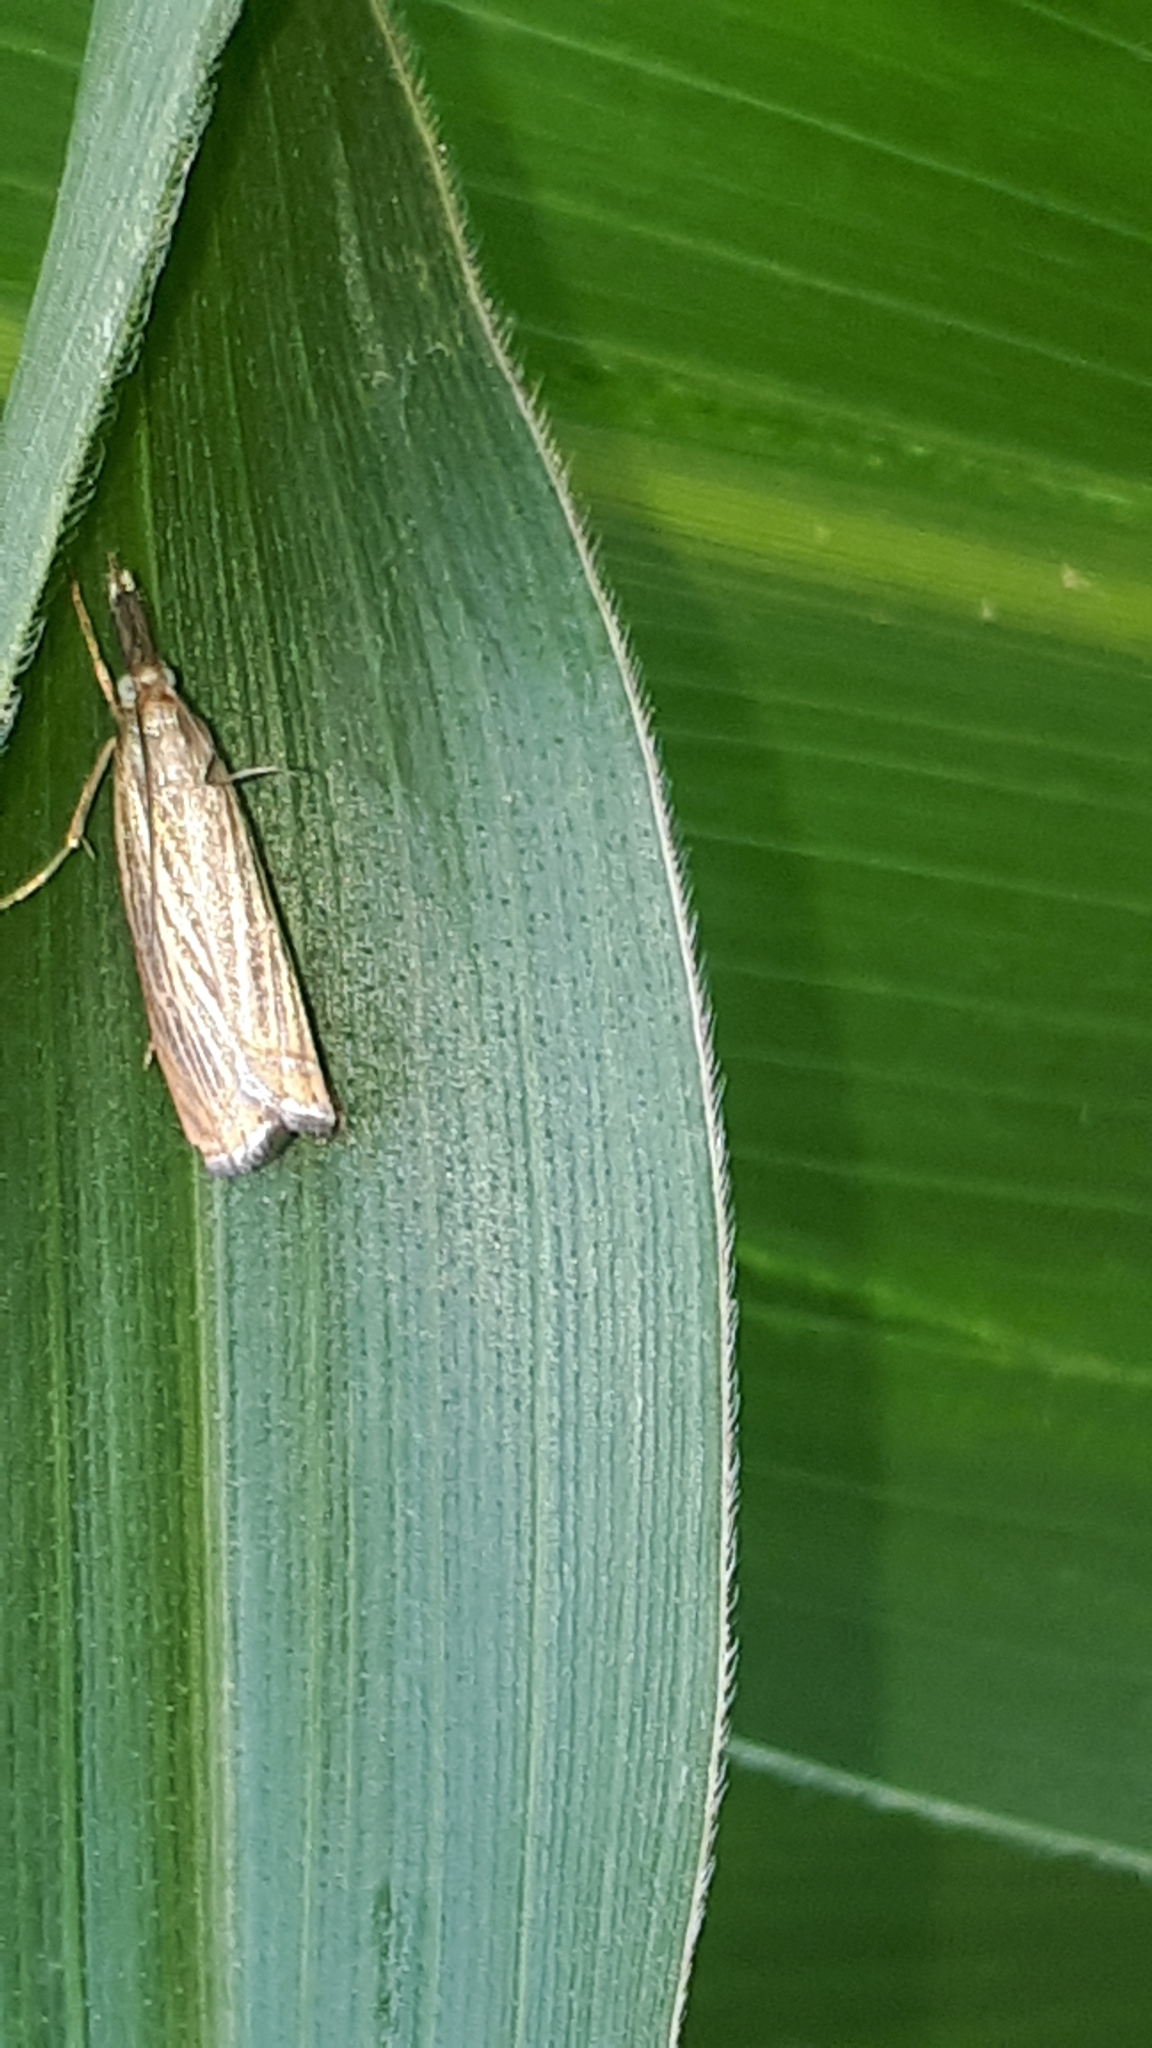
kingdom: Animalia
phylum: Arthropoda
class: Insecta
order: Lepidoptera
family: Crambidae
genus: Chrysoteuchia
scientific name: Chrysoteuchia culmella
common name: Garden grass-veneer
